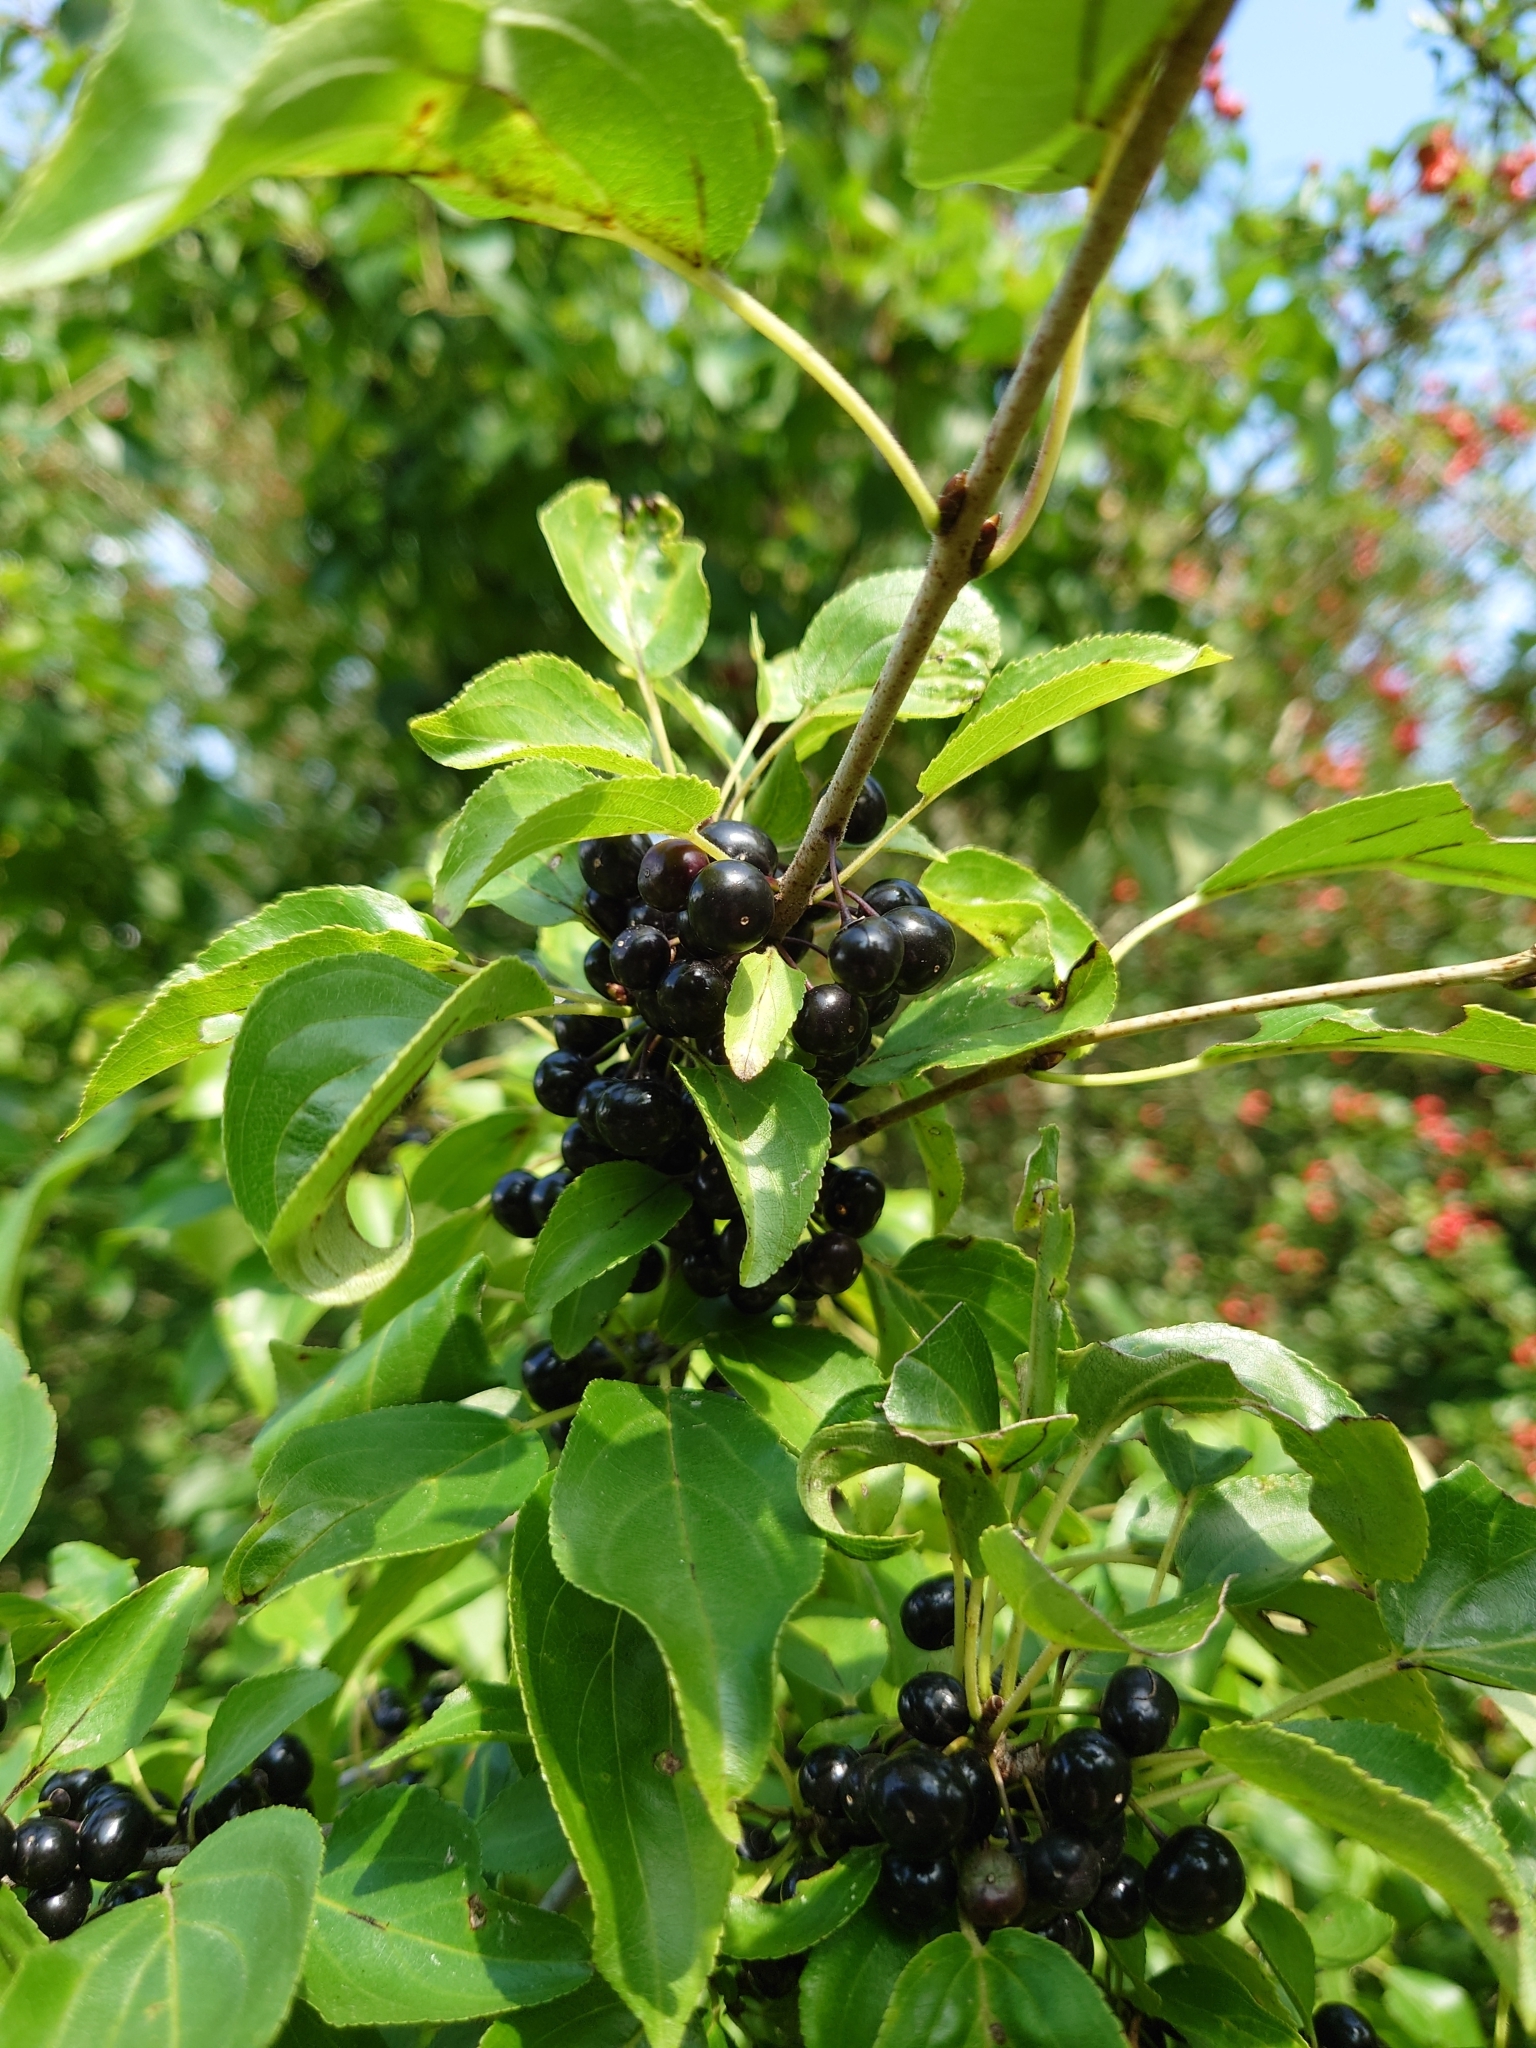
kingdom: Plantae
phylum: Tracheophyta
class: Magnoliopsida
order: Rosales
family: Rhamnaceae
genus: Rhamnus
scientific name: Rhamnus cathartica
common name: Common buckthorn
